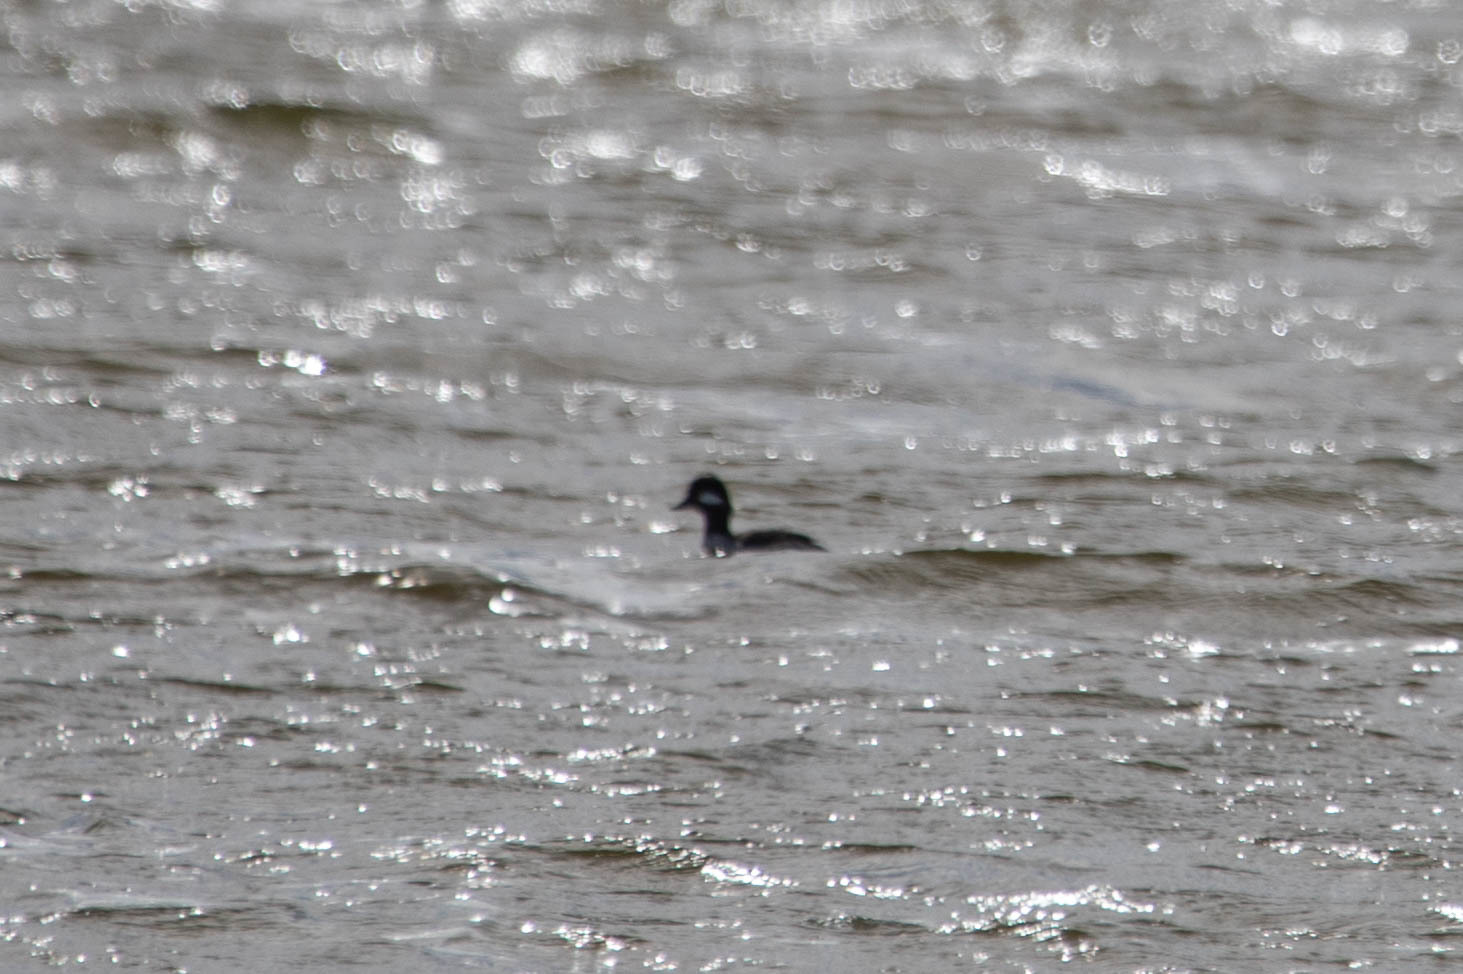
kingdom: Animalia
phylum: Chordata
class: Aves
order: Anseriformes
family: Anatidae
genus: Bucephala
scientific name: Bucephala albeola
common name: Bufflehead
